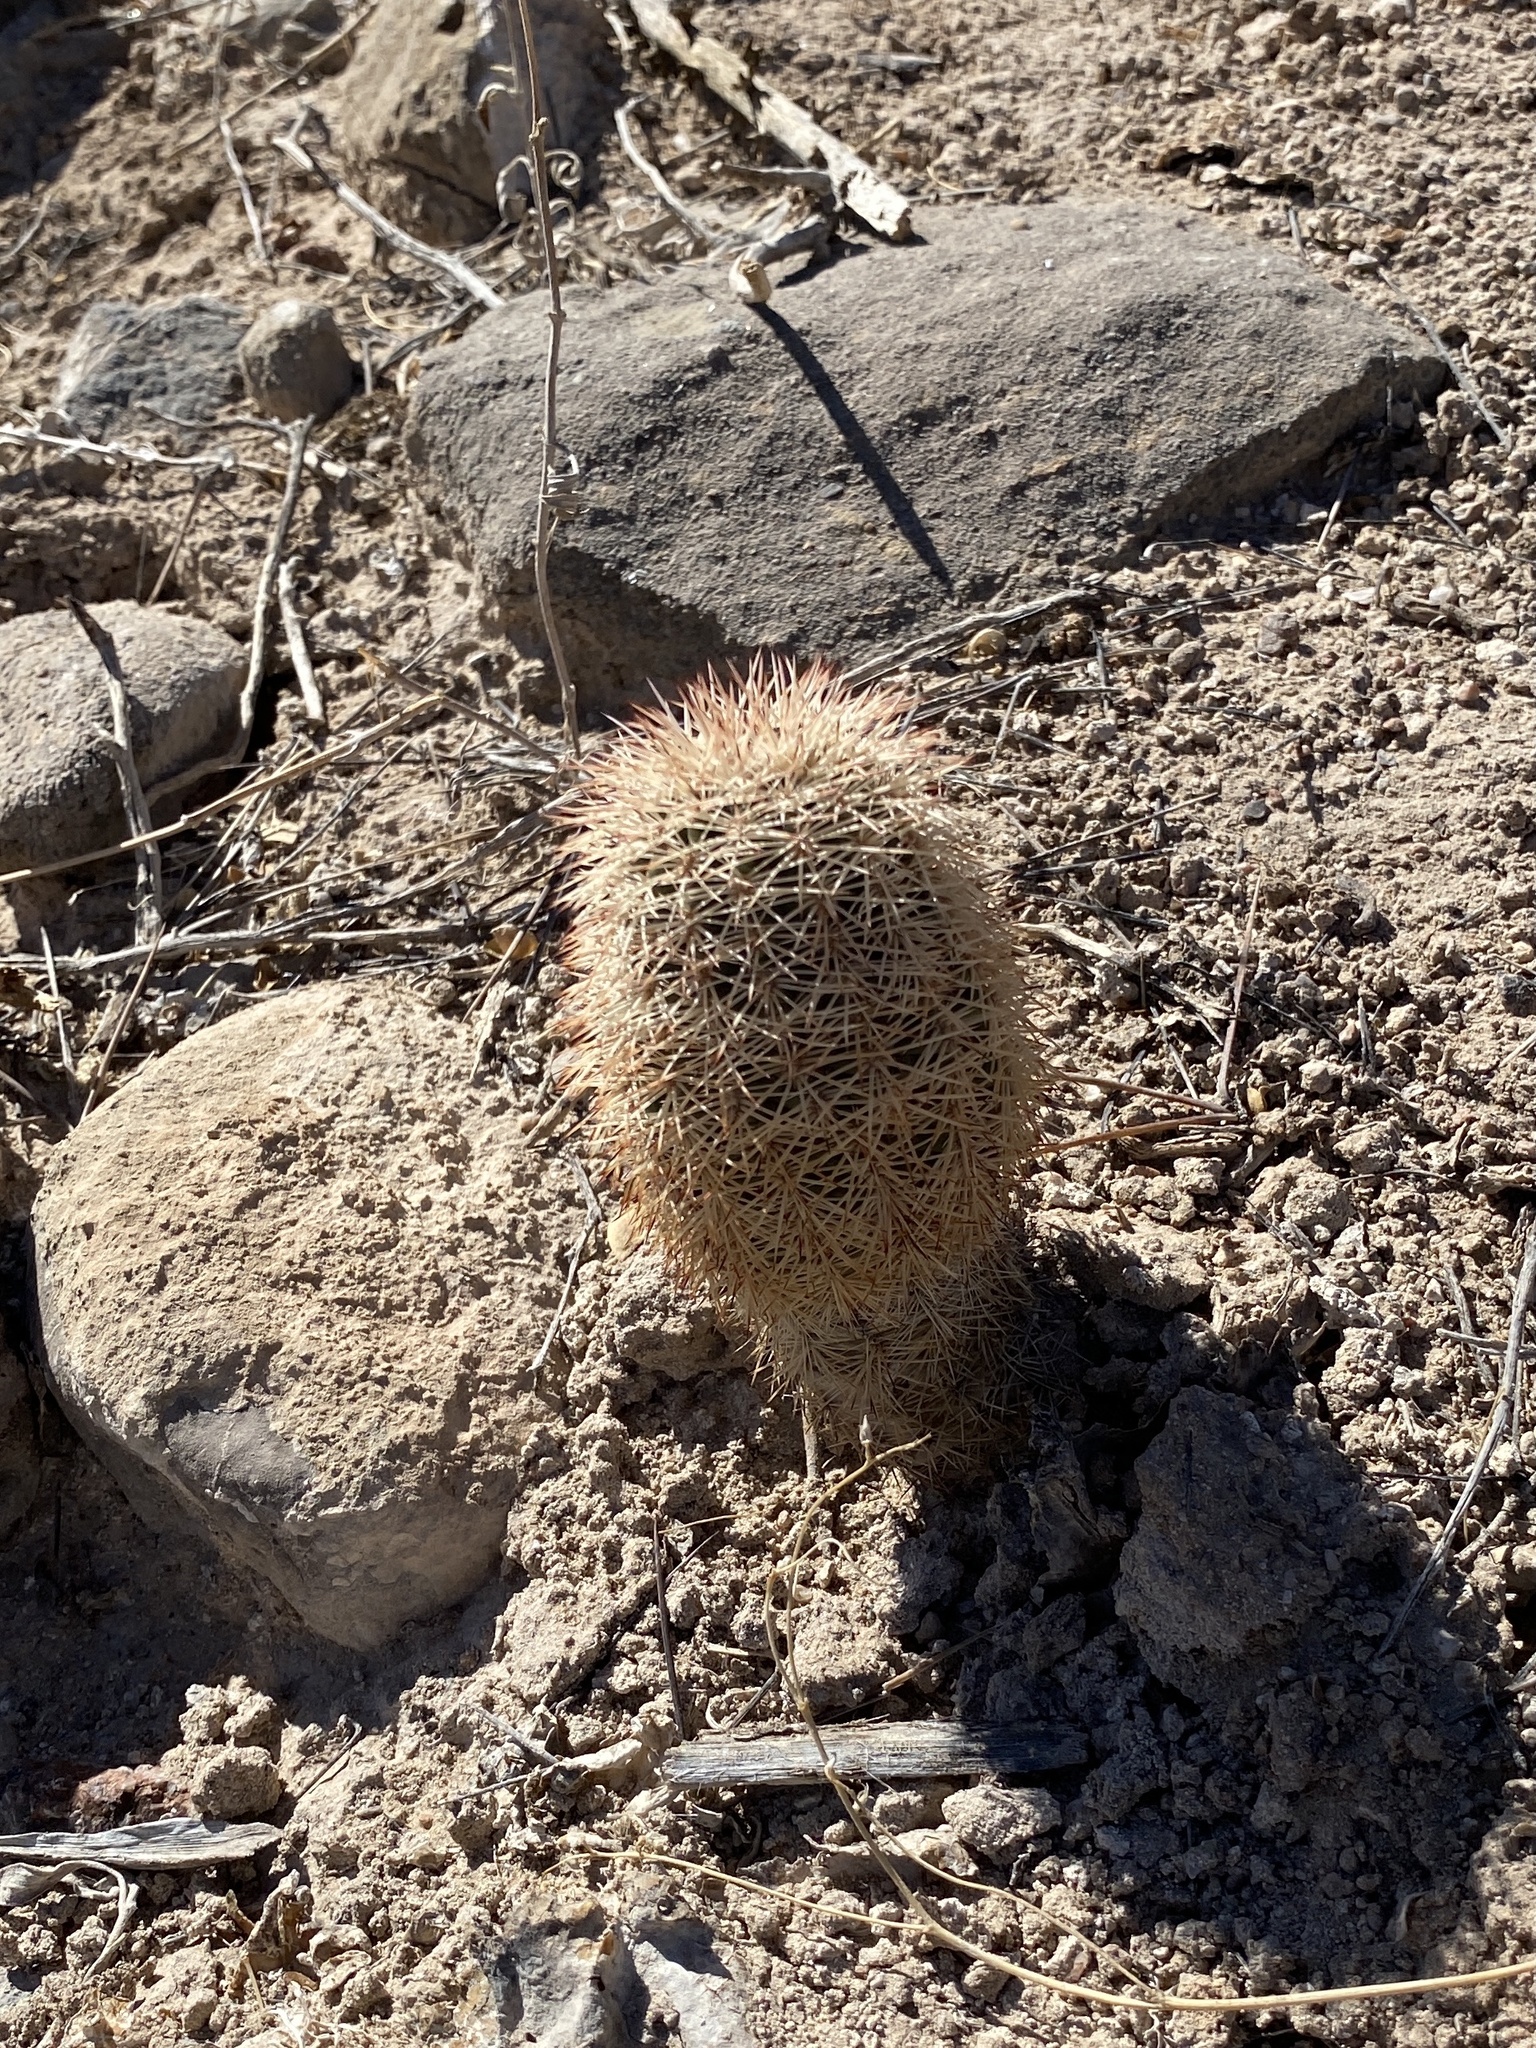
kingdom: Plantae
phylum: Tracheophyta
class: Magnoliopsida
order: Caryophyllales
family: Cactaceae
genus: Echinocereus
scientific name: Echinocereus dasyacanthus
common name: Spiny hedgehog cactus
